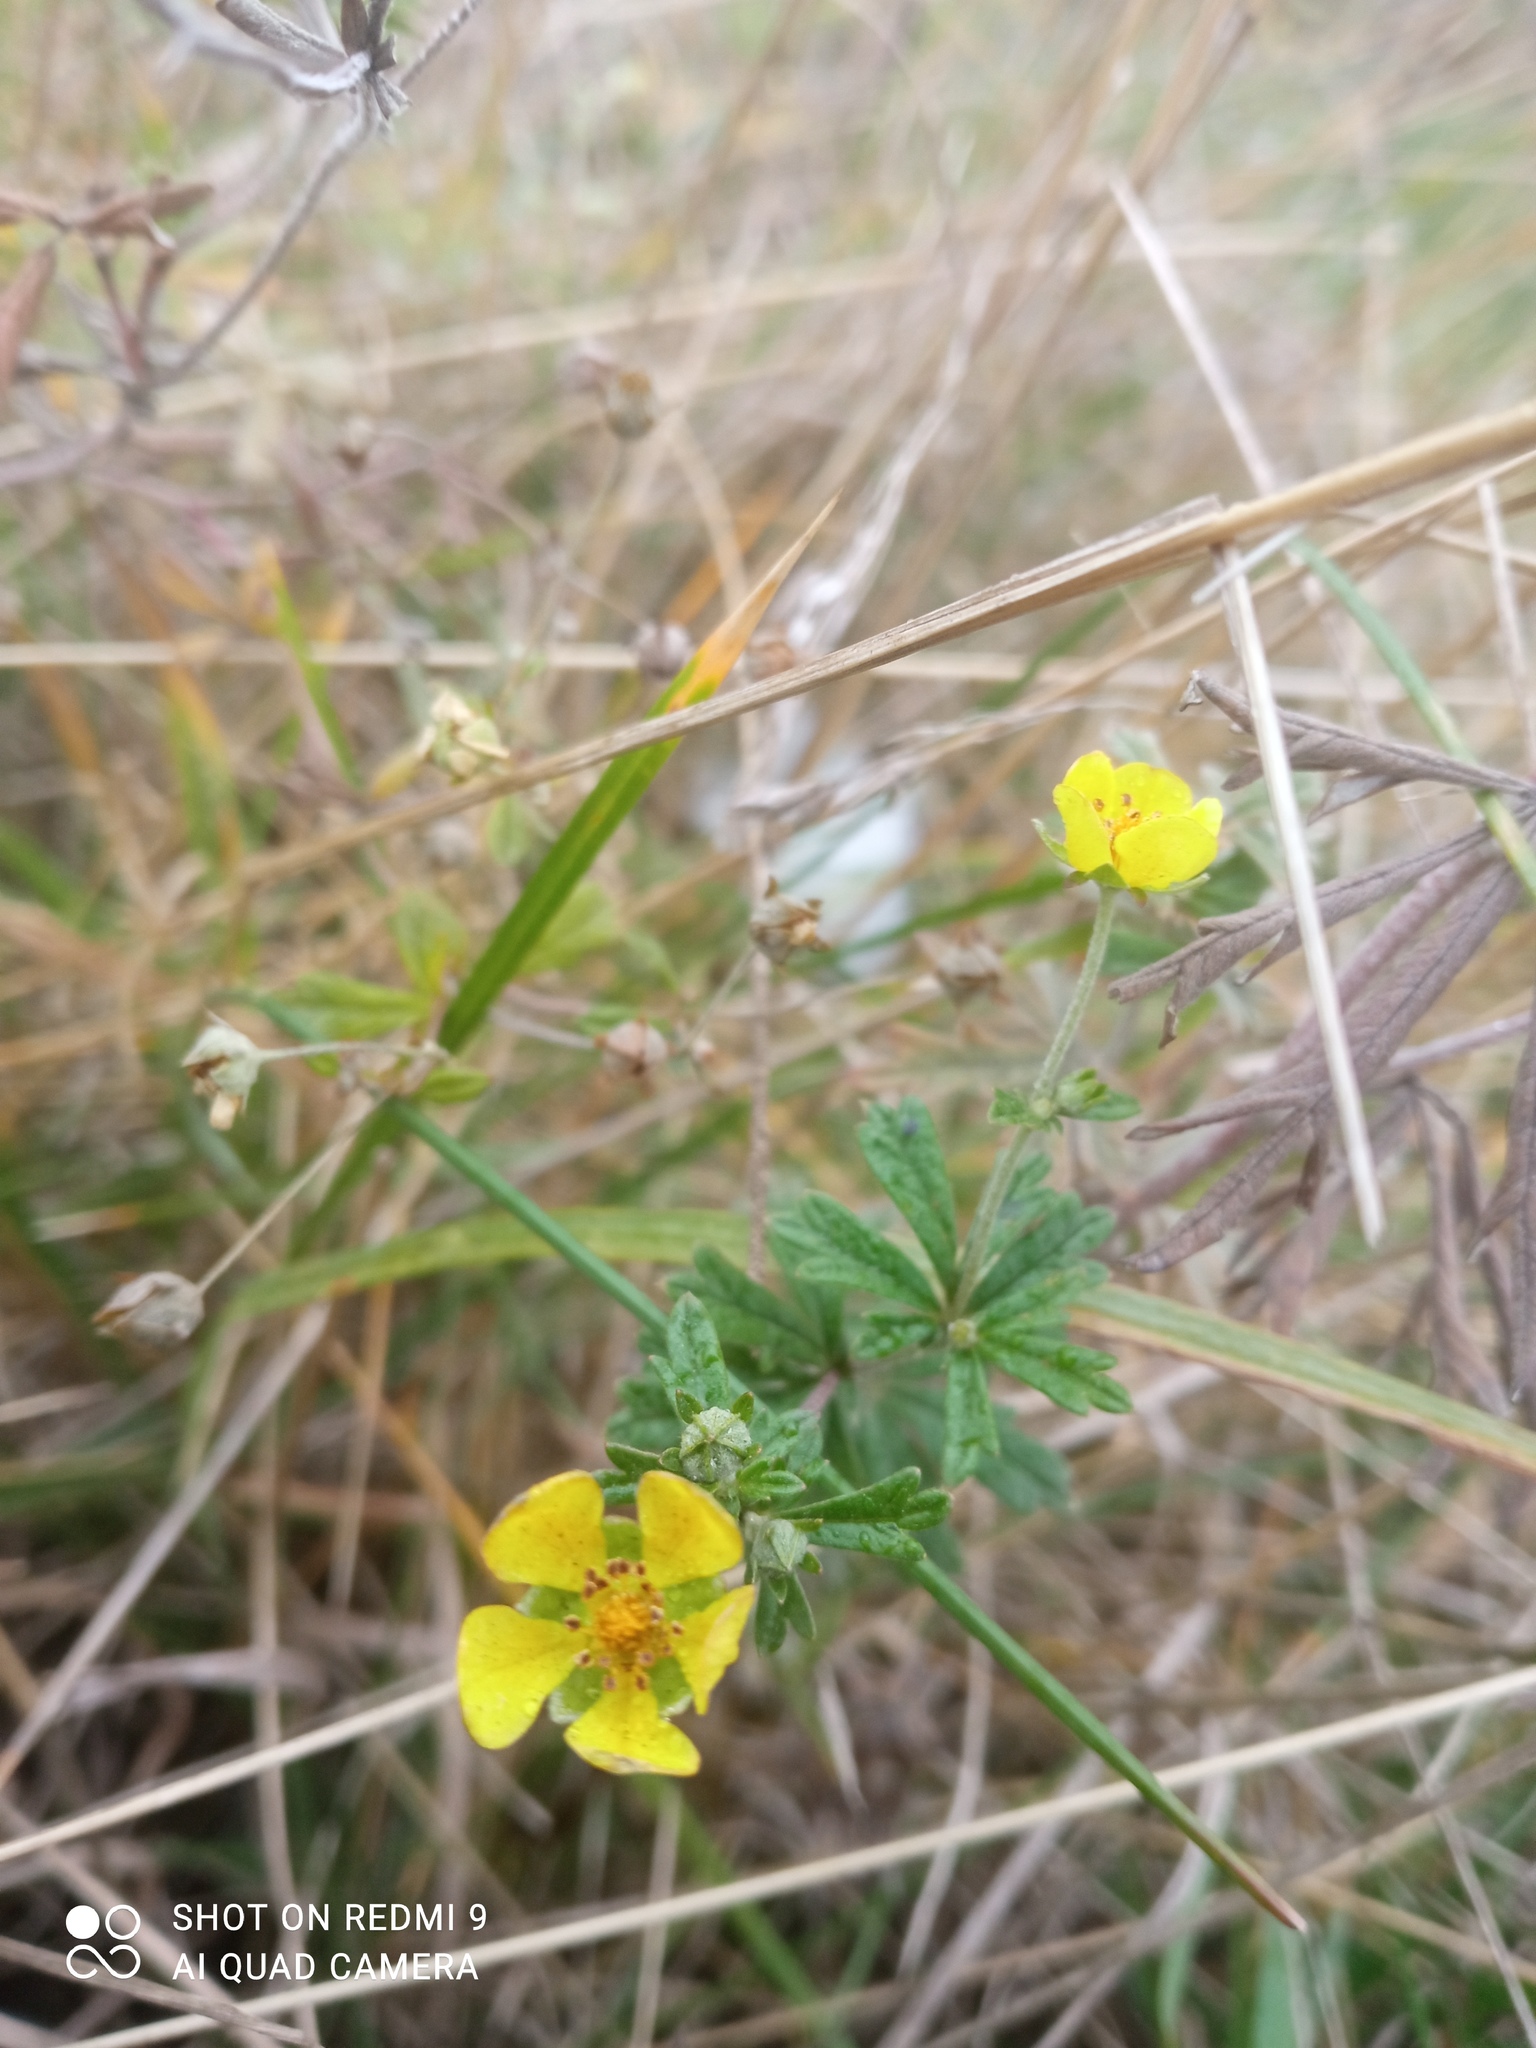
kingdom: Plantae
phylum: Tracheophyta
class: Magnoliopsida
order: Rosales
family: Rosaceae
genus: Potentilla
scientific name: Potentilla argentea
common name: Hoary cinquefoil
